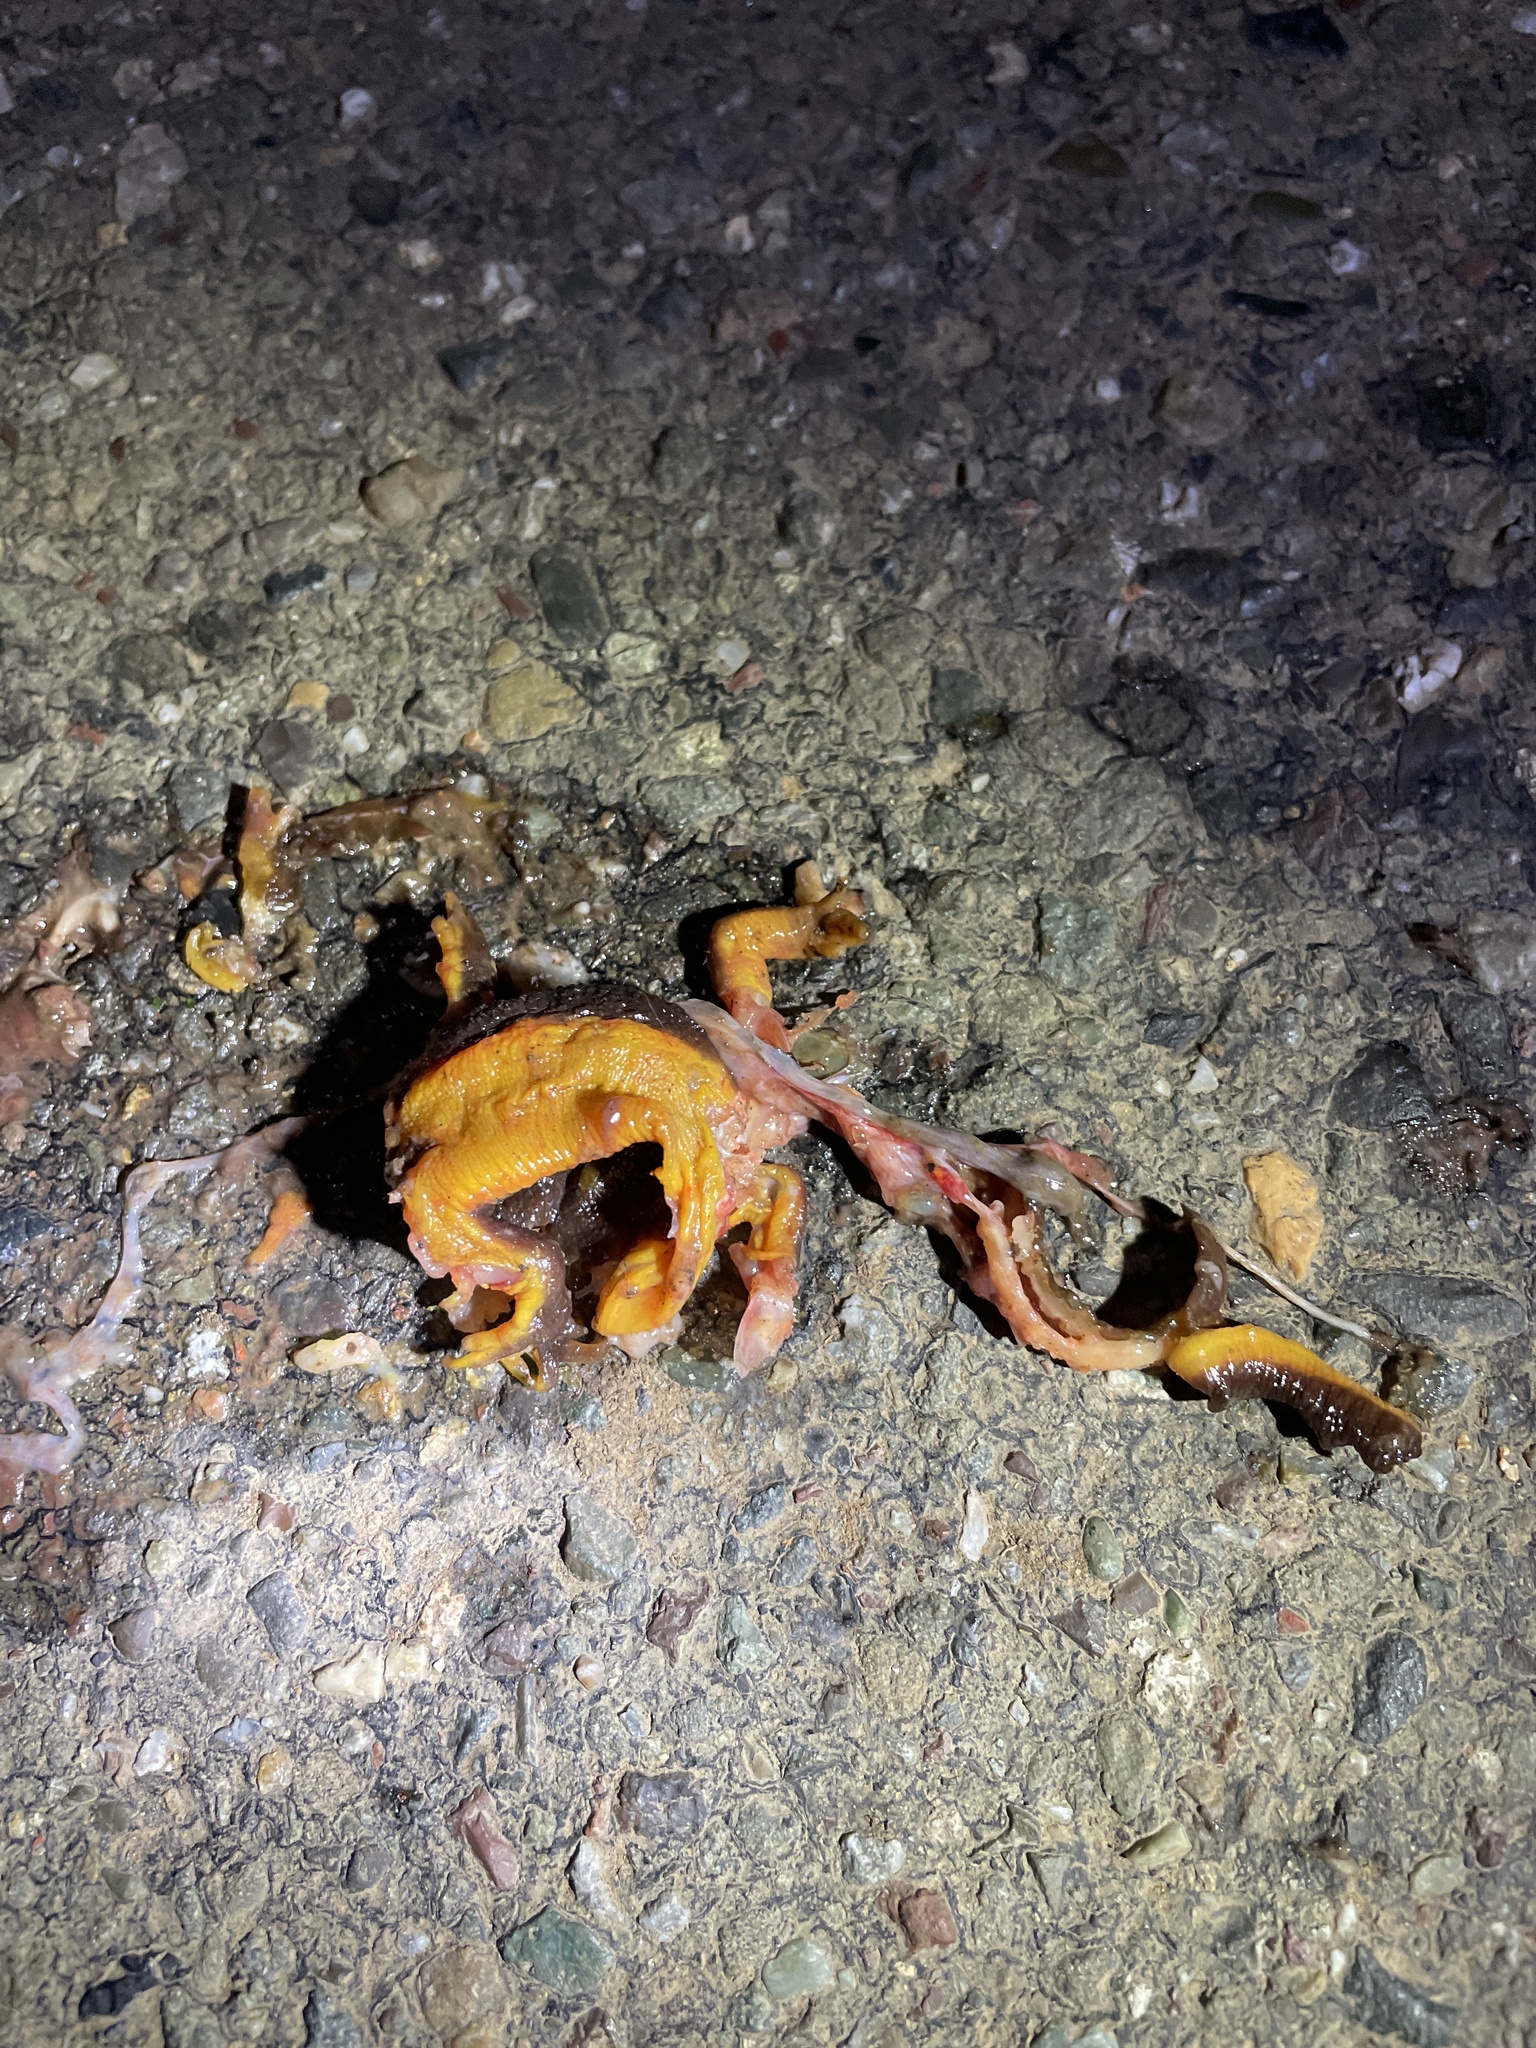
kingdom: Animalia
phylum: Chordata
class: Amphibia
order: Caudata
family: Salamandridae
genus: Taricha
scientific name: Taricha
